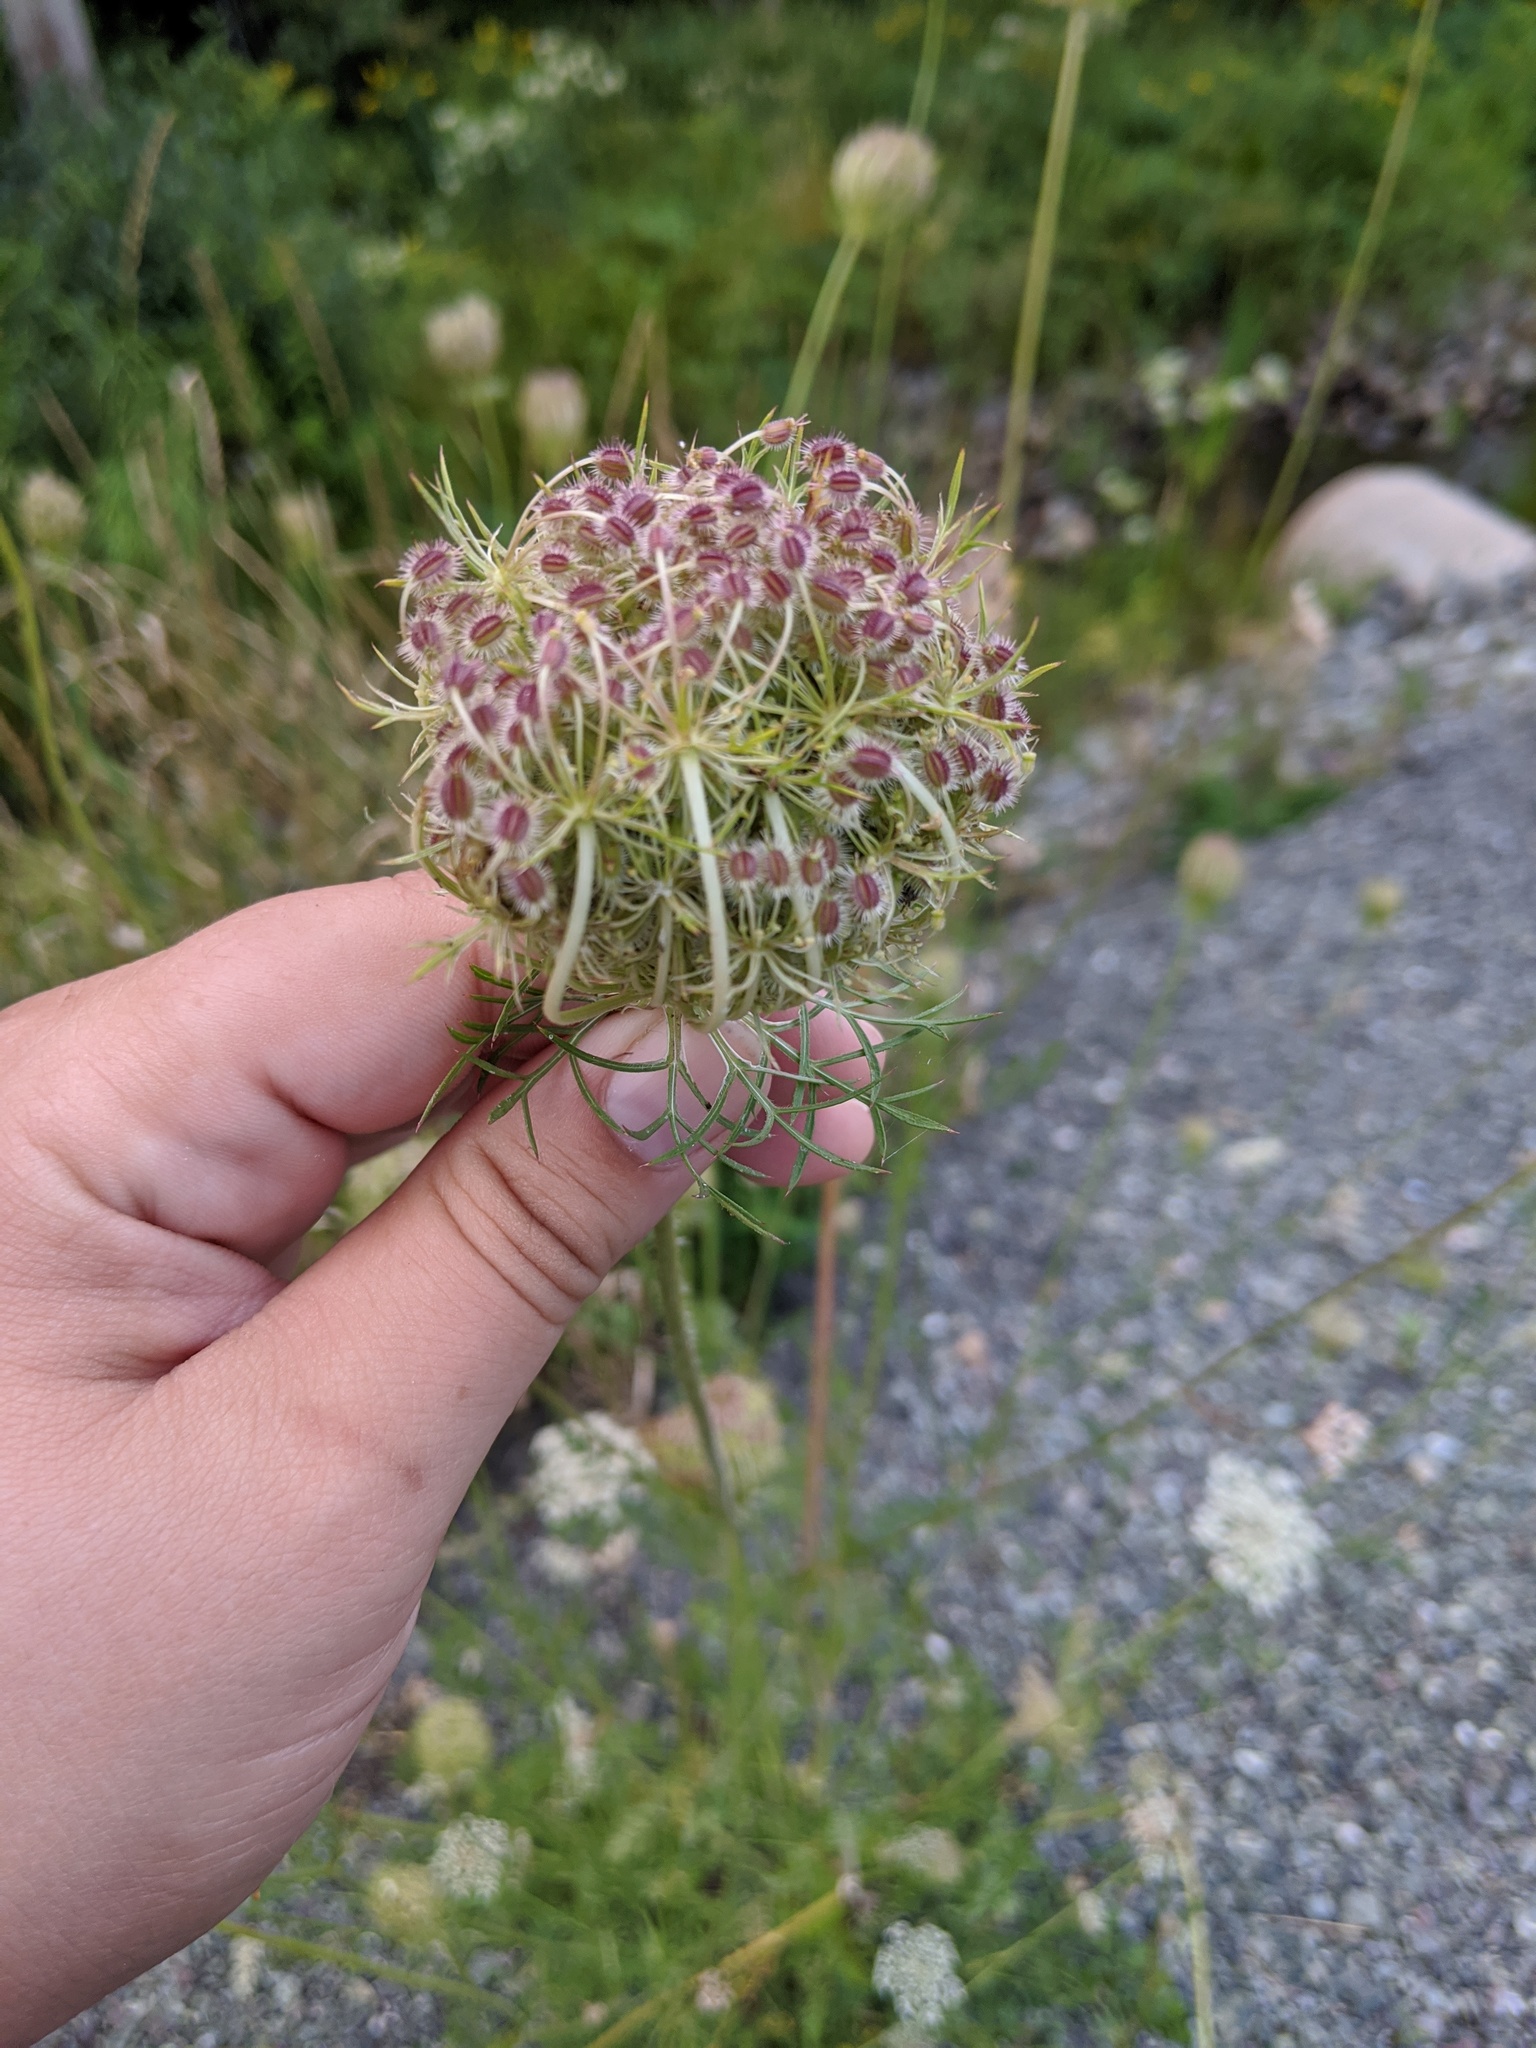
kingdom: Plantae
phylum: Tracheophyta
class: Magnoliopsida
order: Apiales
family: Apiaceae
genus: Daucus
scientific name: Daucus carota
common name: Wild carrot
